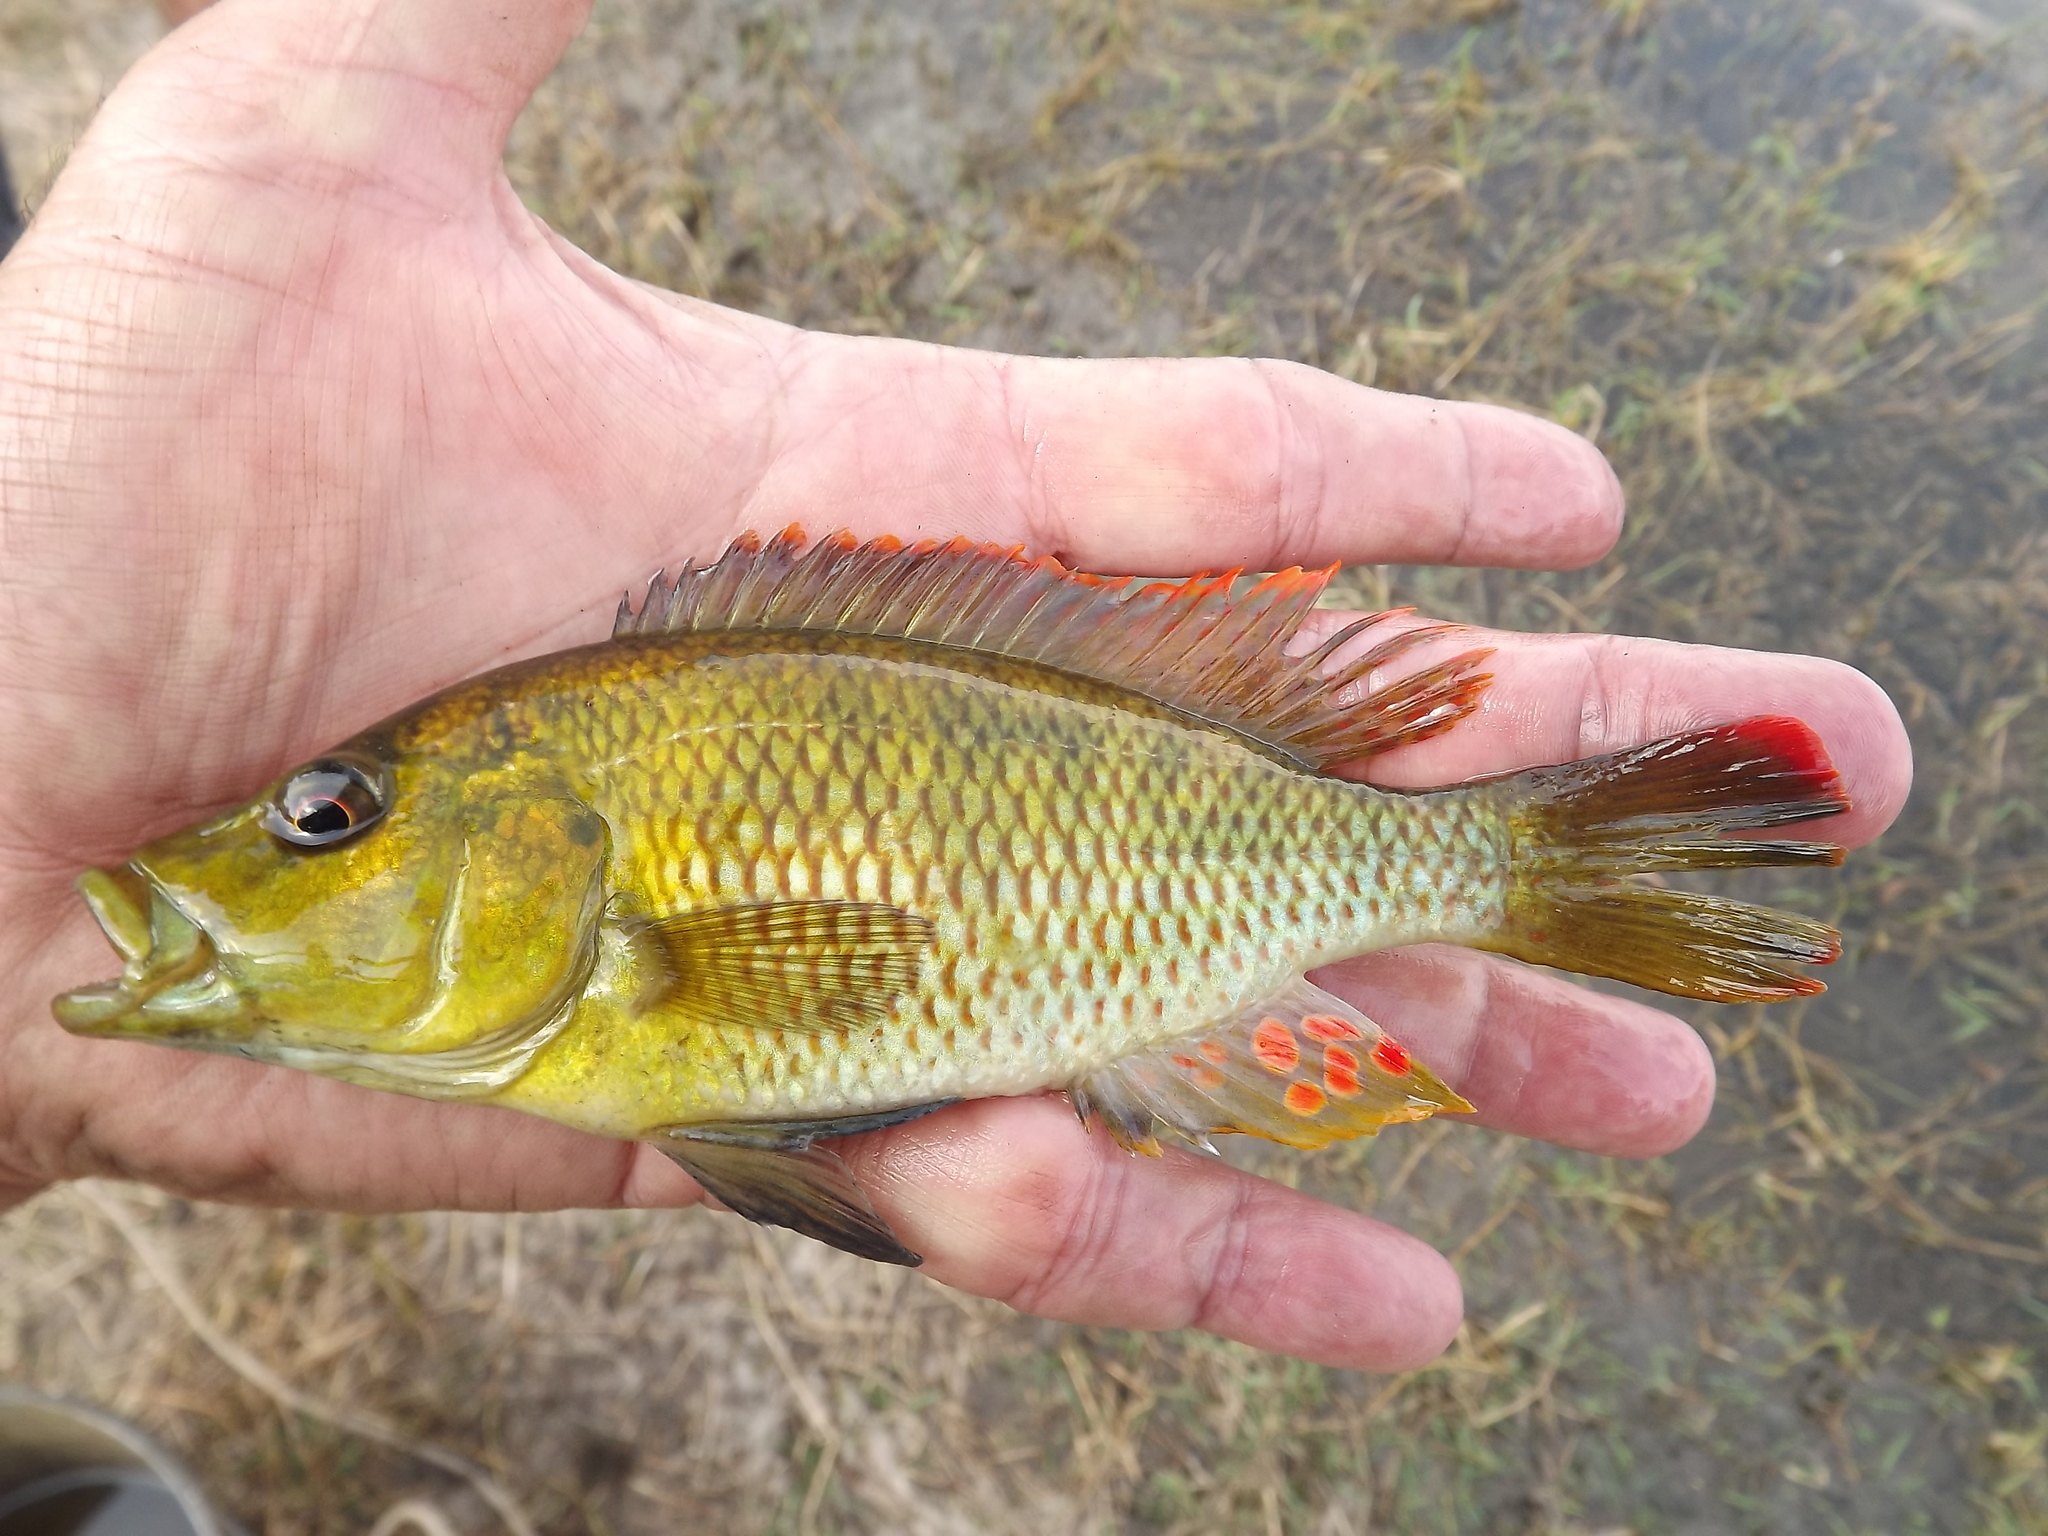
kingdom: Animalia
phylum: Chordata
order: Perciformes
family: Cichlidae
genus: Chetia
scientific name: Chetia brevis
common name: Orange-fringed largemouth
